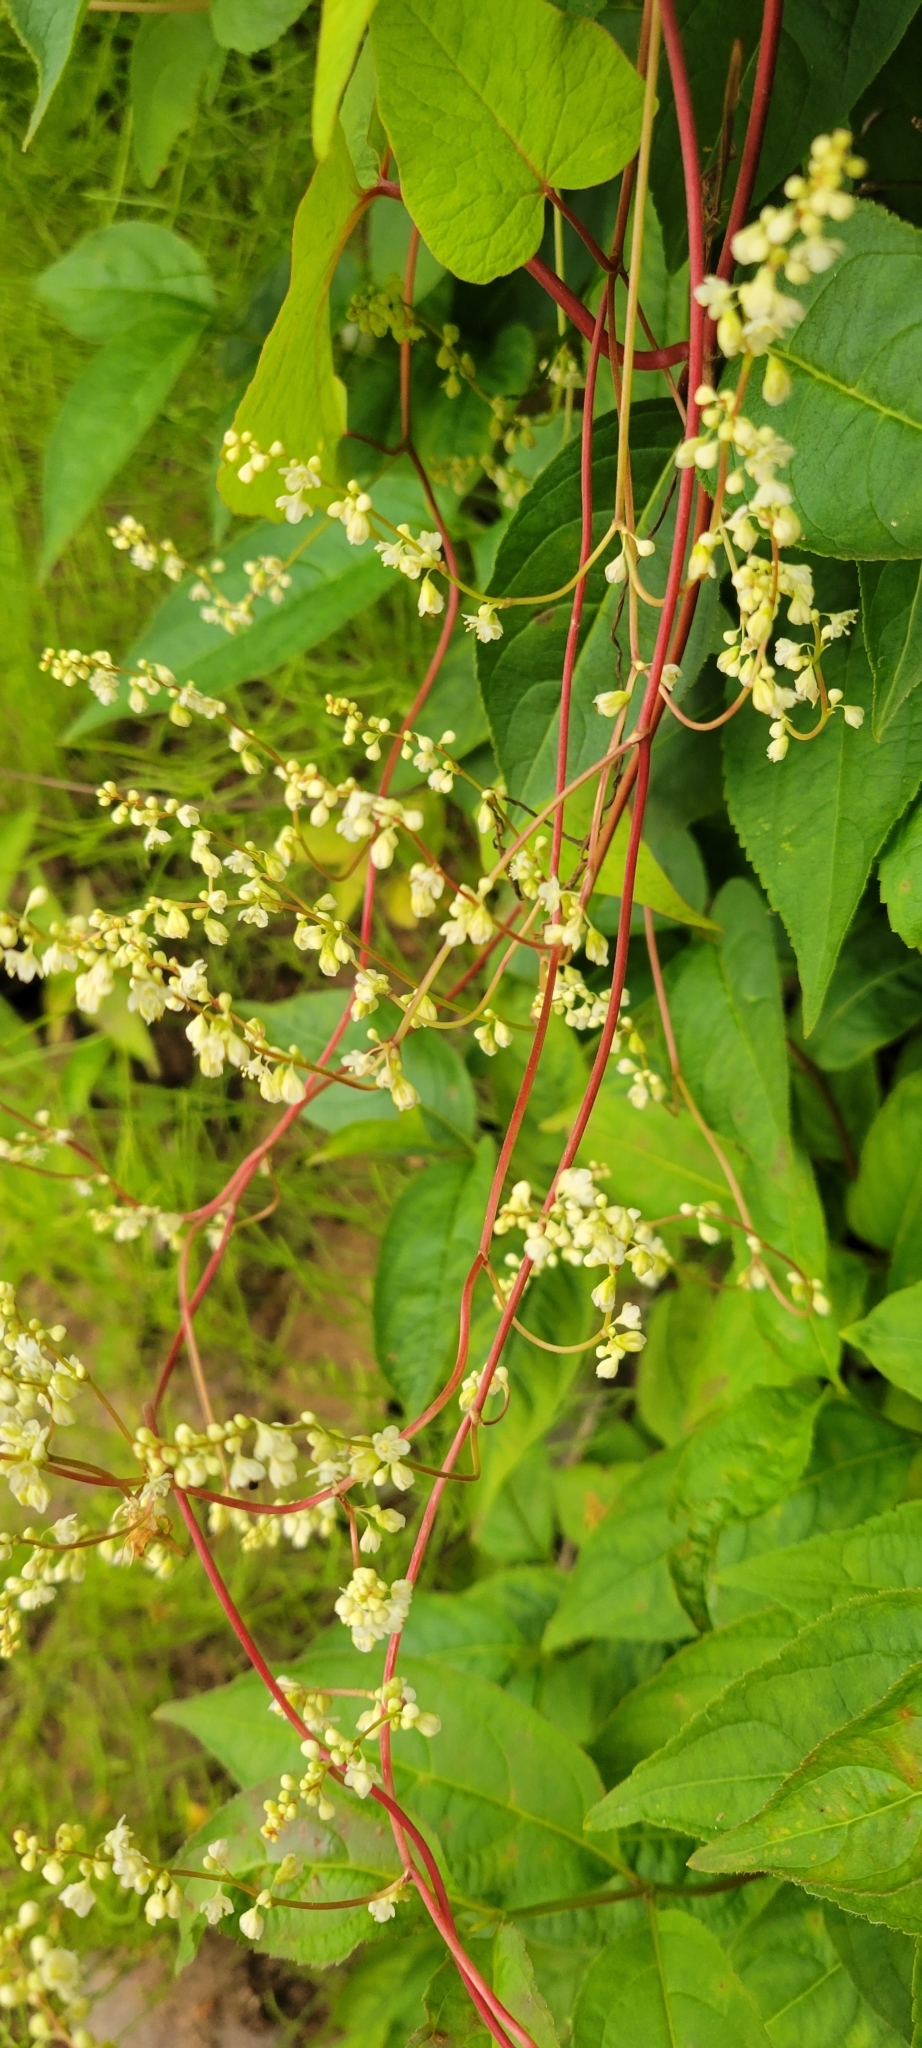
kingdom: Plantae
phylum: Tracheophyta
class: Magnoliopsida
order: Caryophyllales
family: Polygonaceae
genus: Parogonum
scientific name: Parogonum ciliinode
